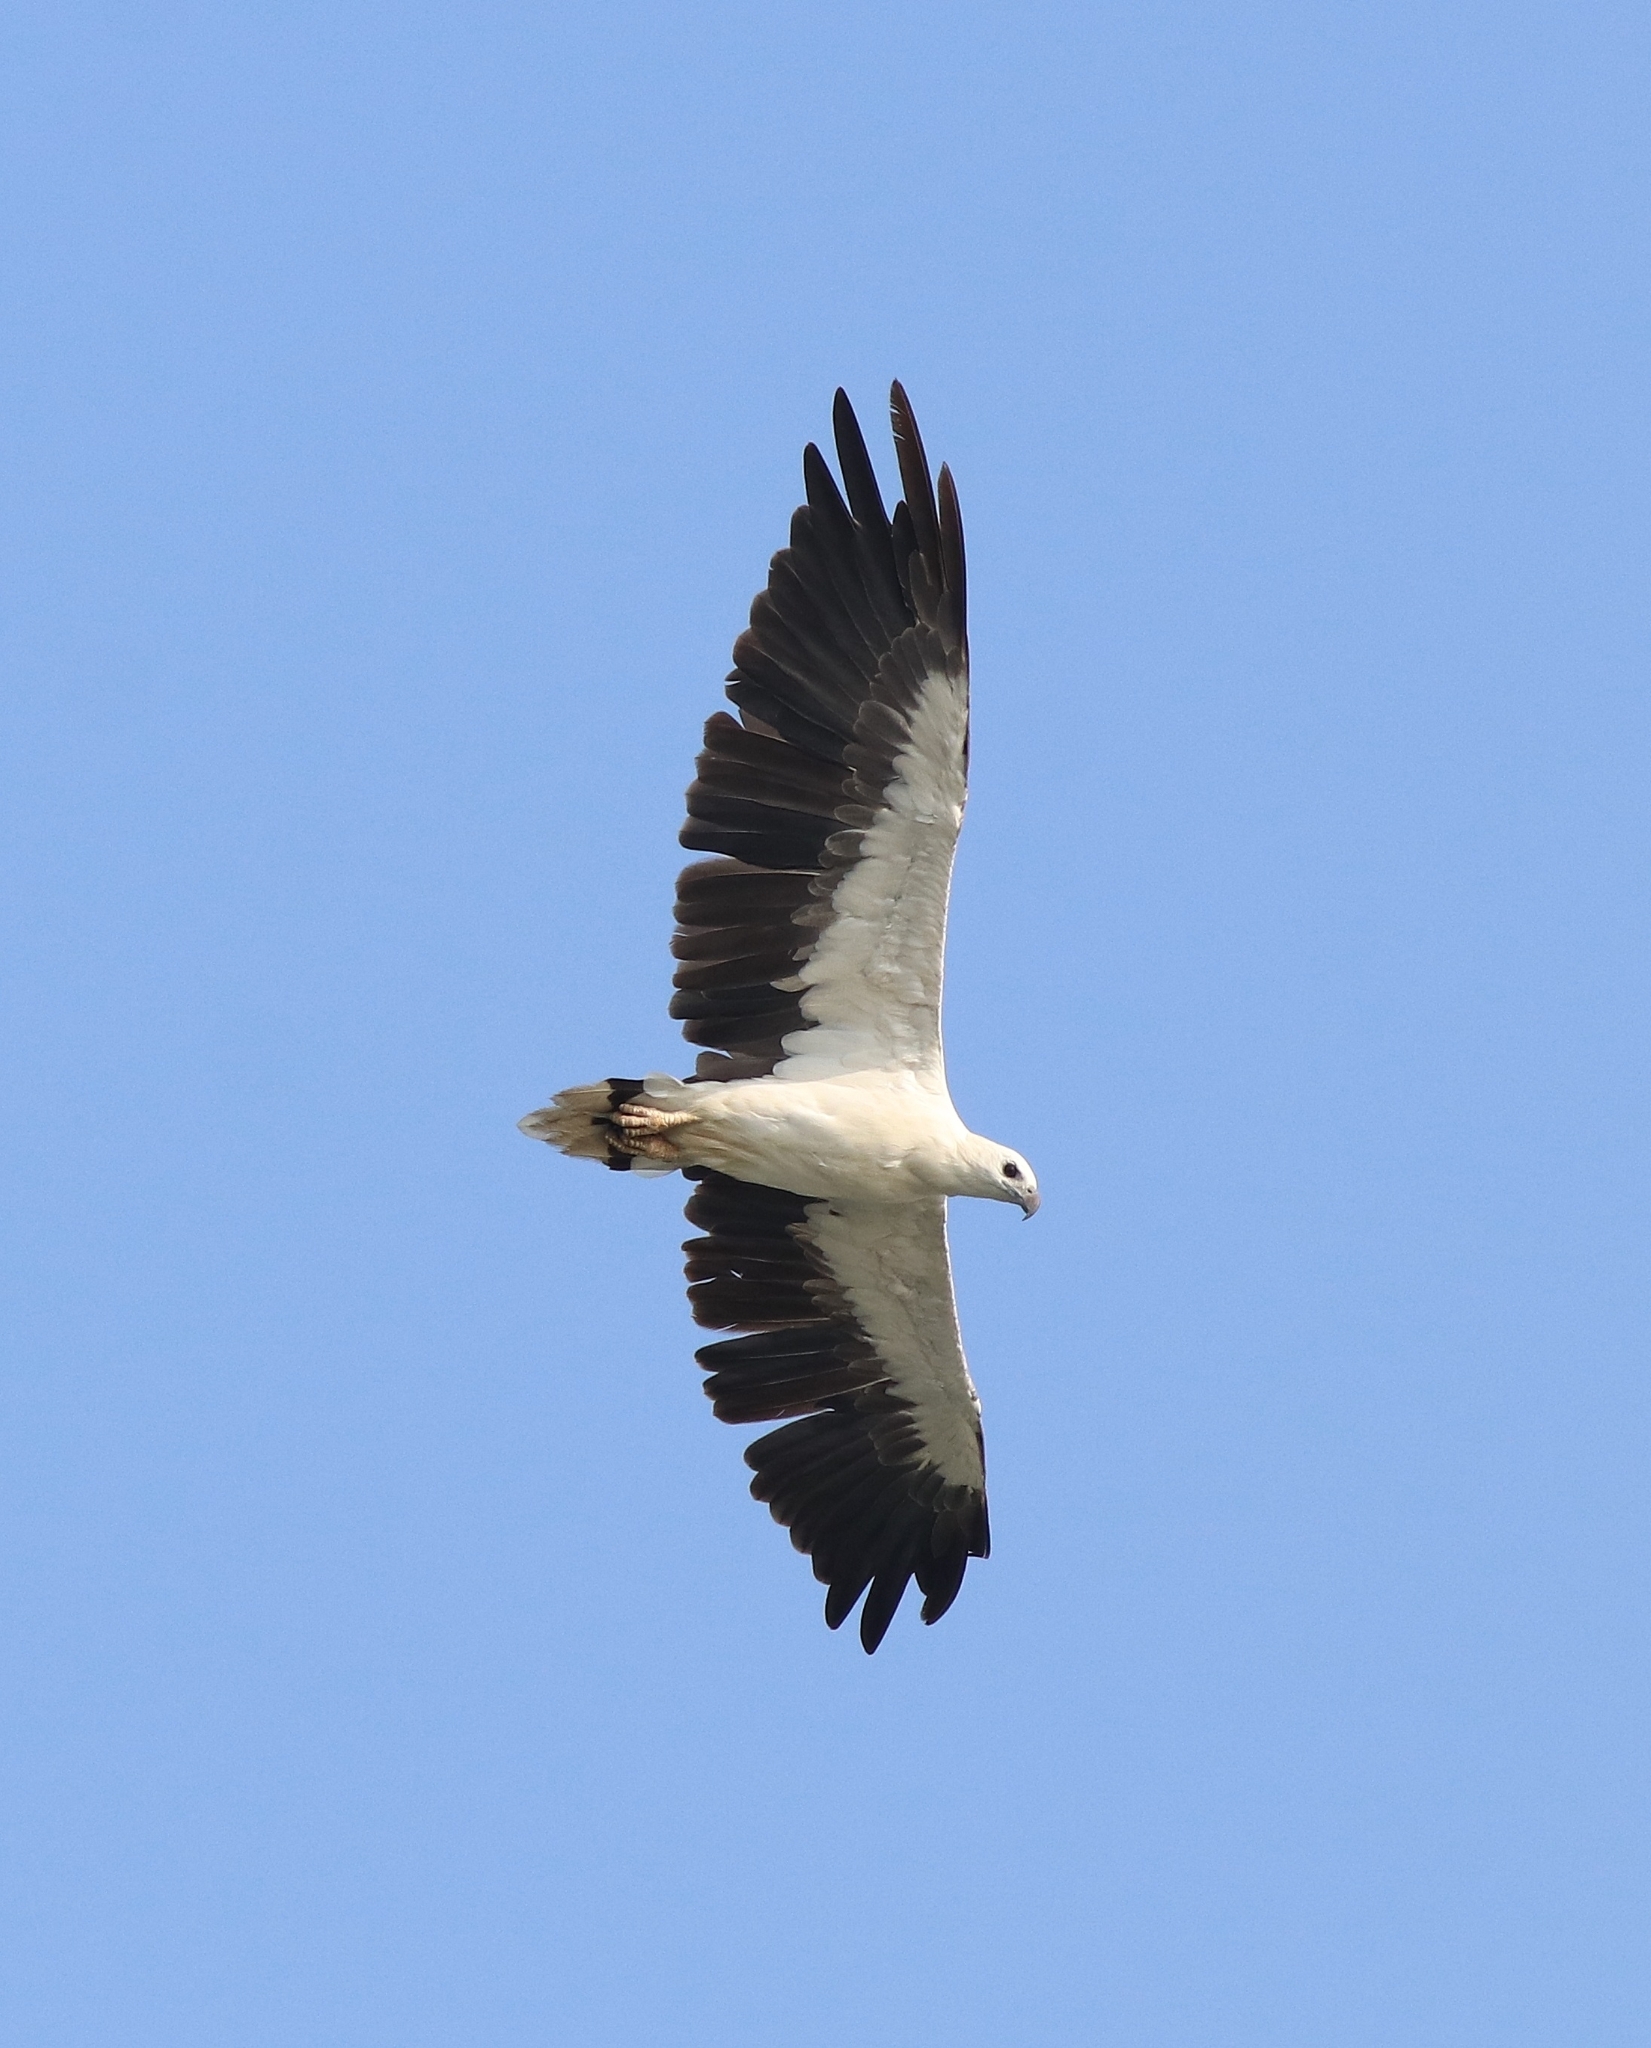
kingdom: Animalia
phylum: Chordata
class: Aves
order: Accipitriformes
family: Accipitridae
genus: Haliaeetus
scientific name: Haliaeetus leucogaster
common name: White-bellied sea eagle
